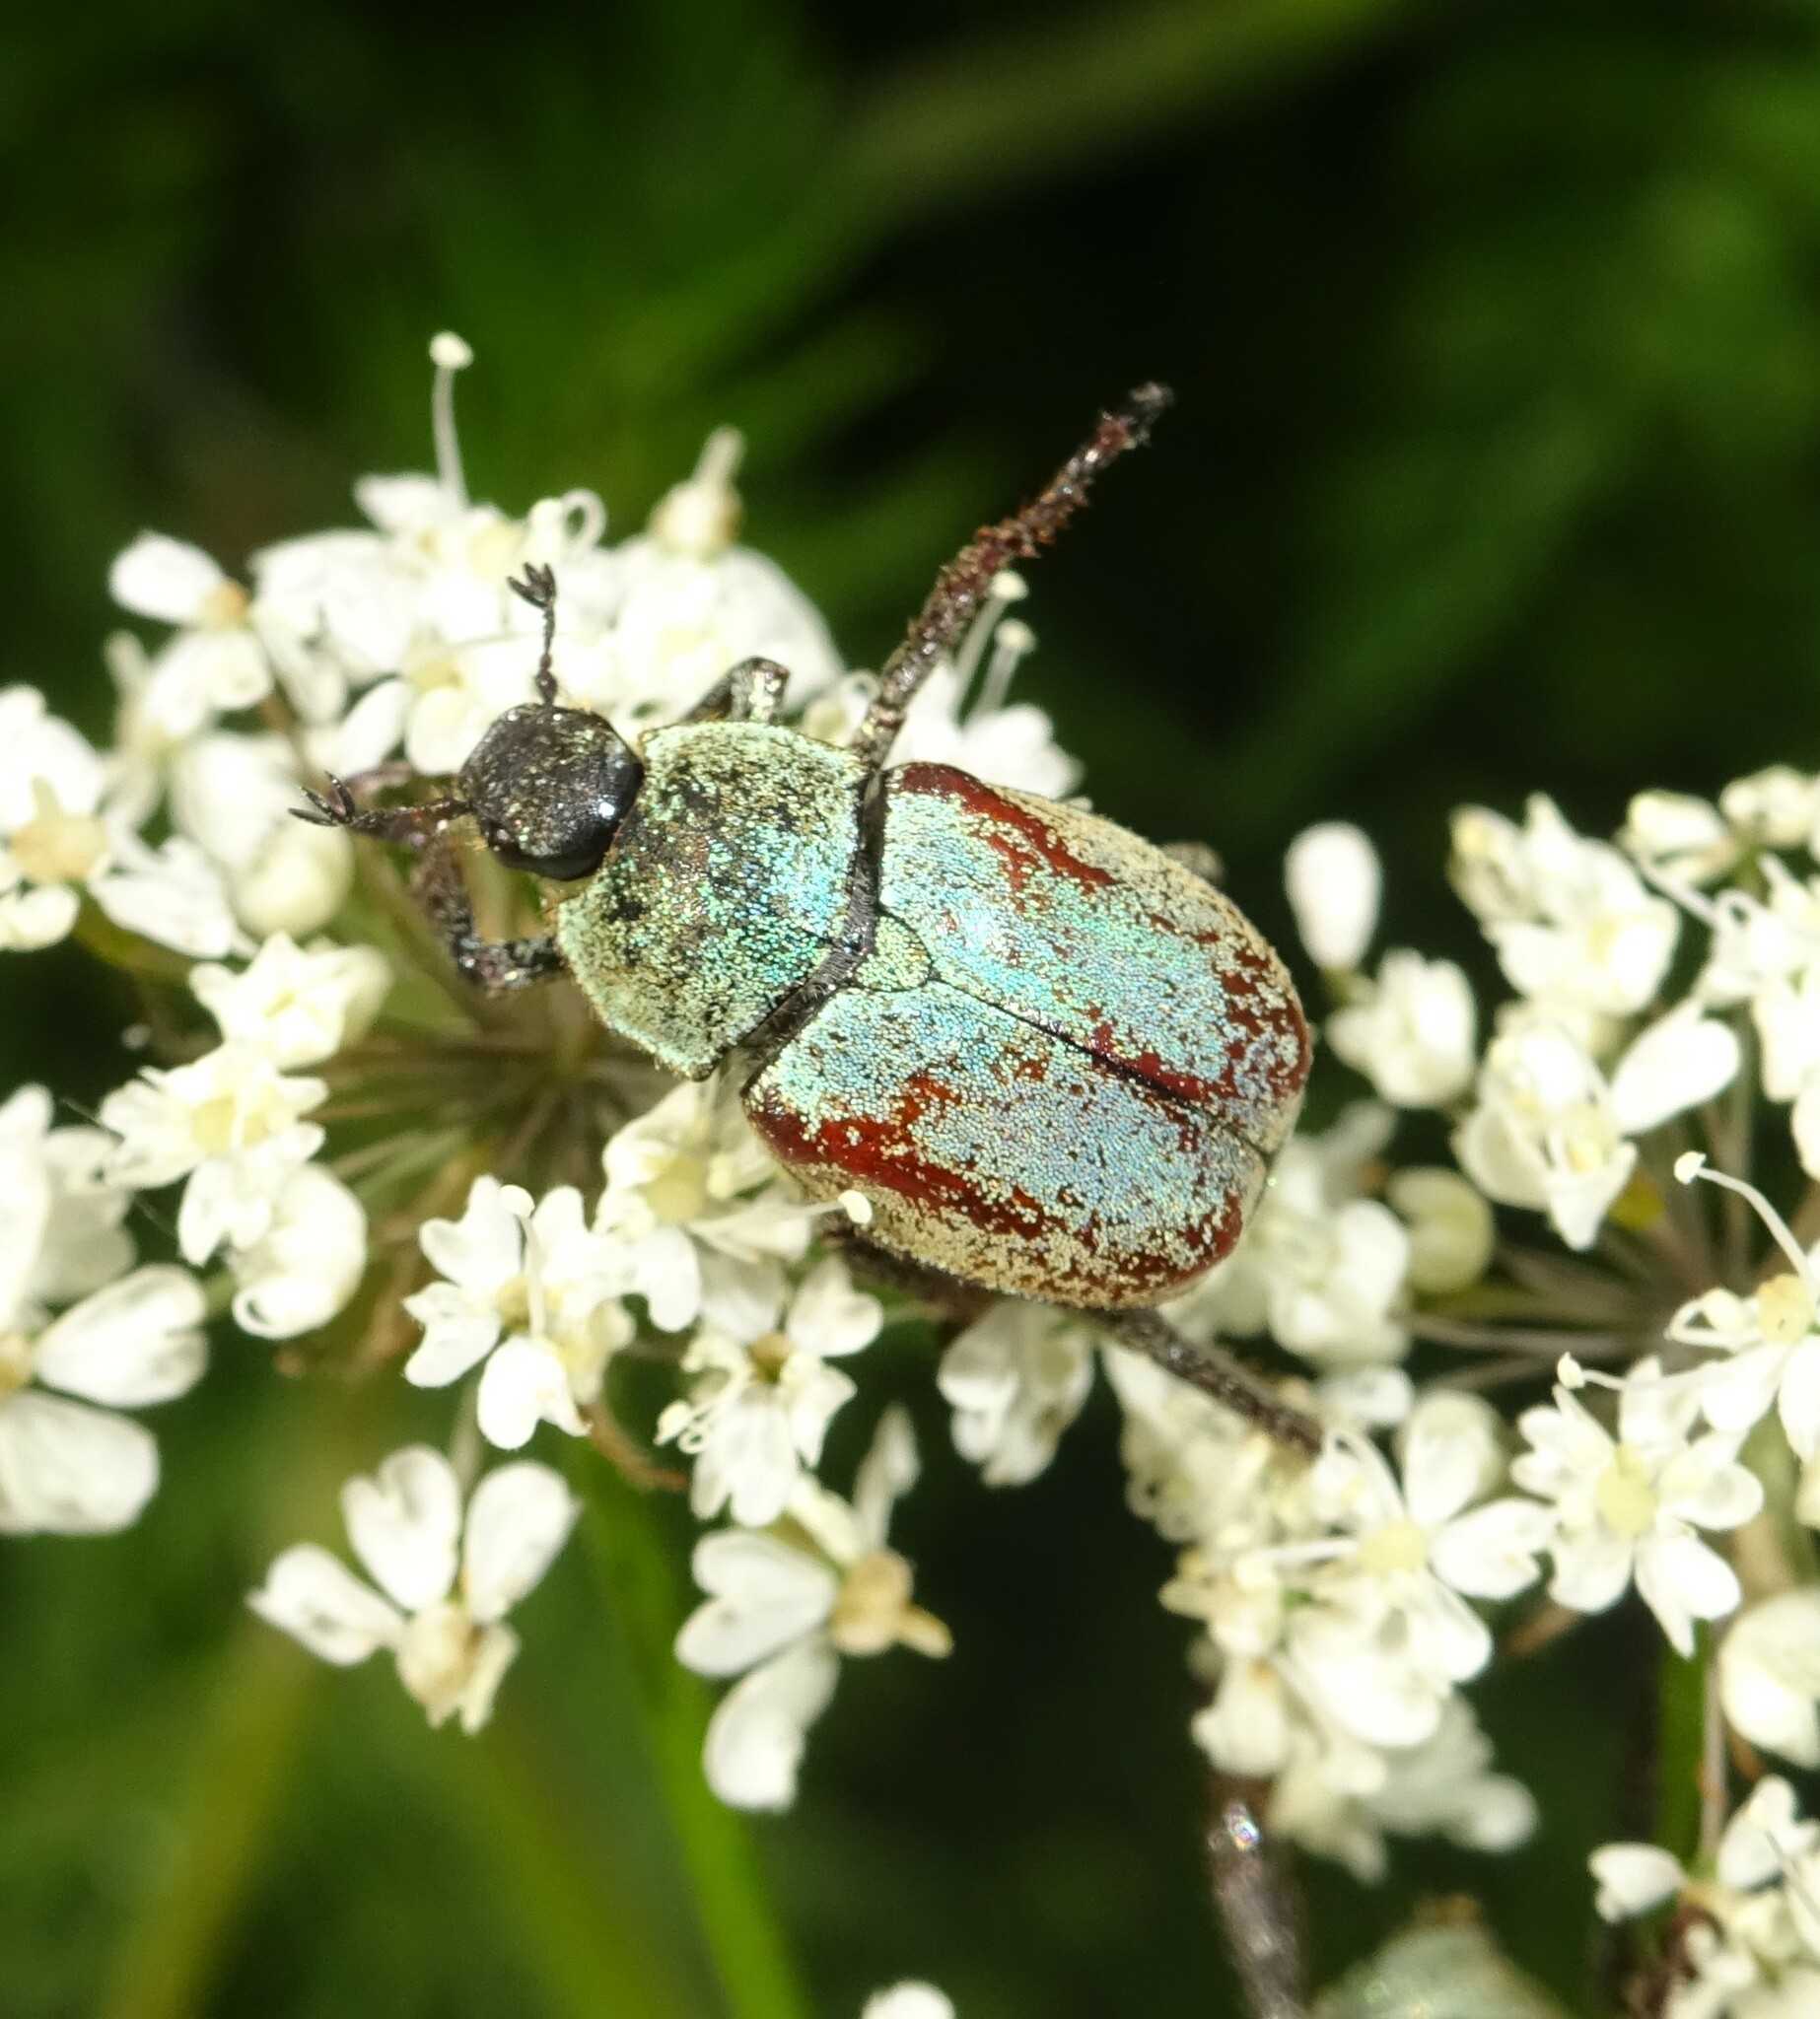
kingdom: Animalia
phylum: Arthropoda
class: Insecta
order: Coleoptera
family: Scarabaeidae
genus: Hoplia
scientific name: Hoplia argentea
